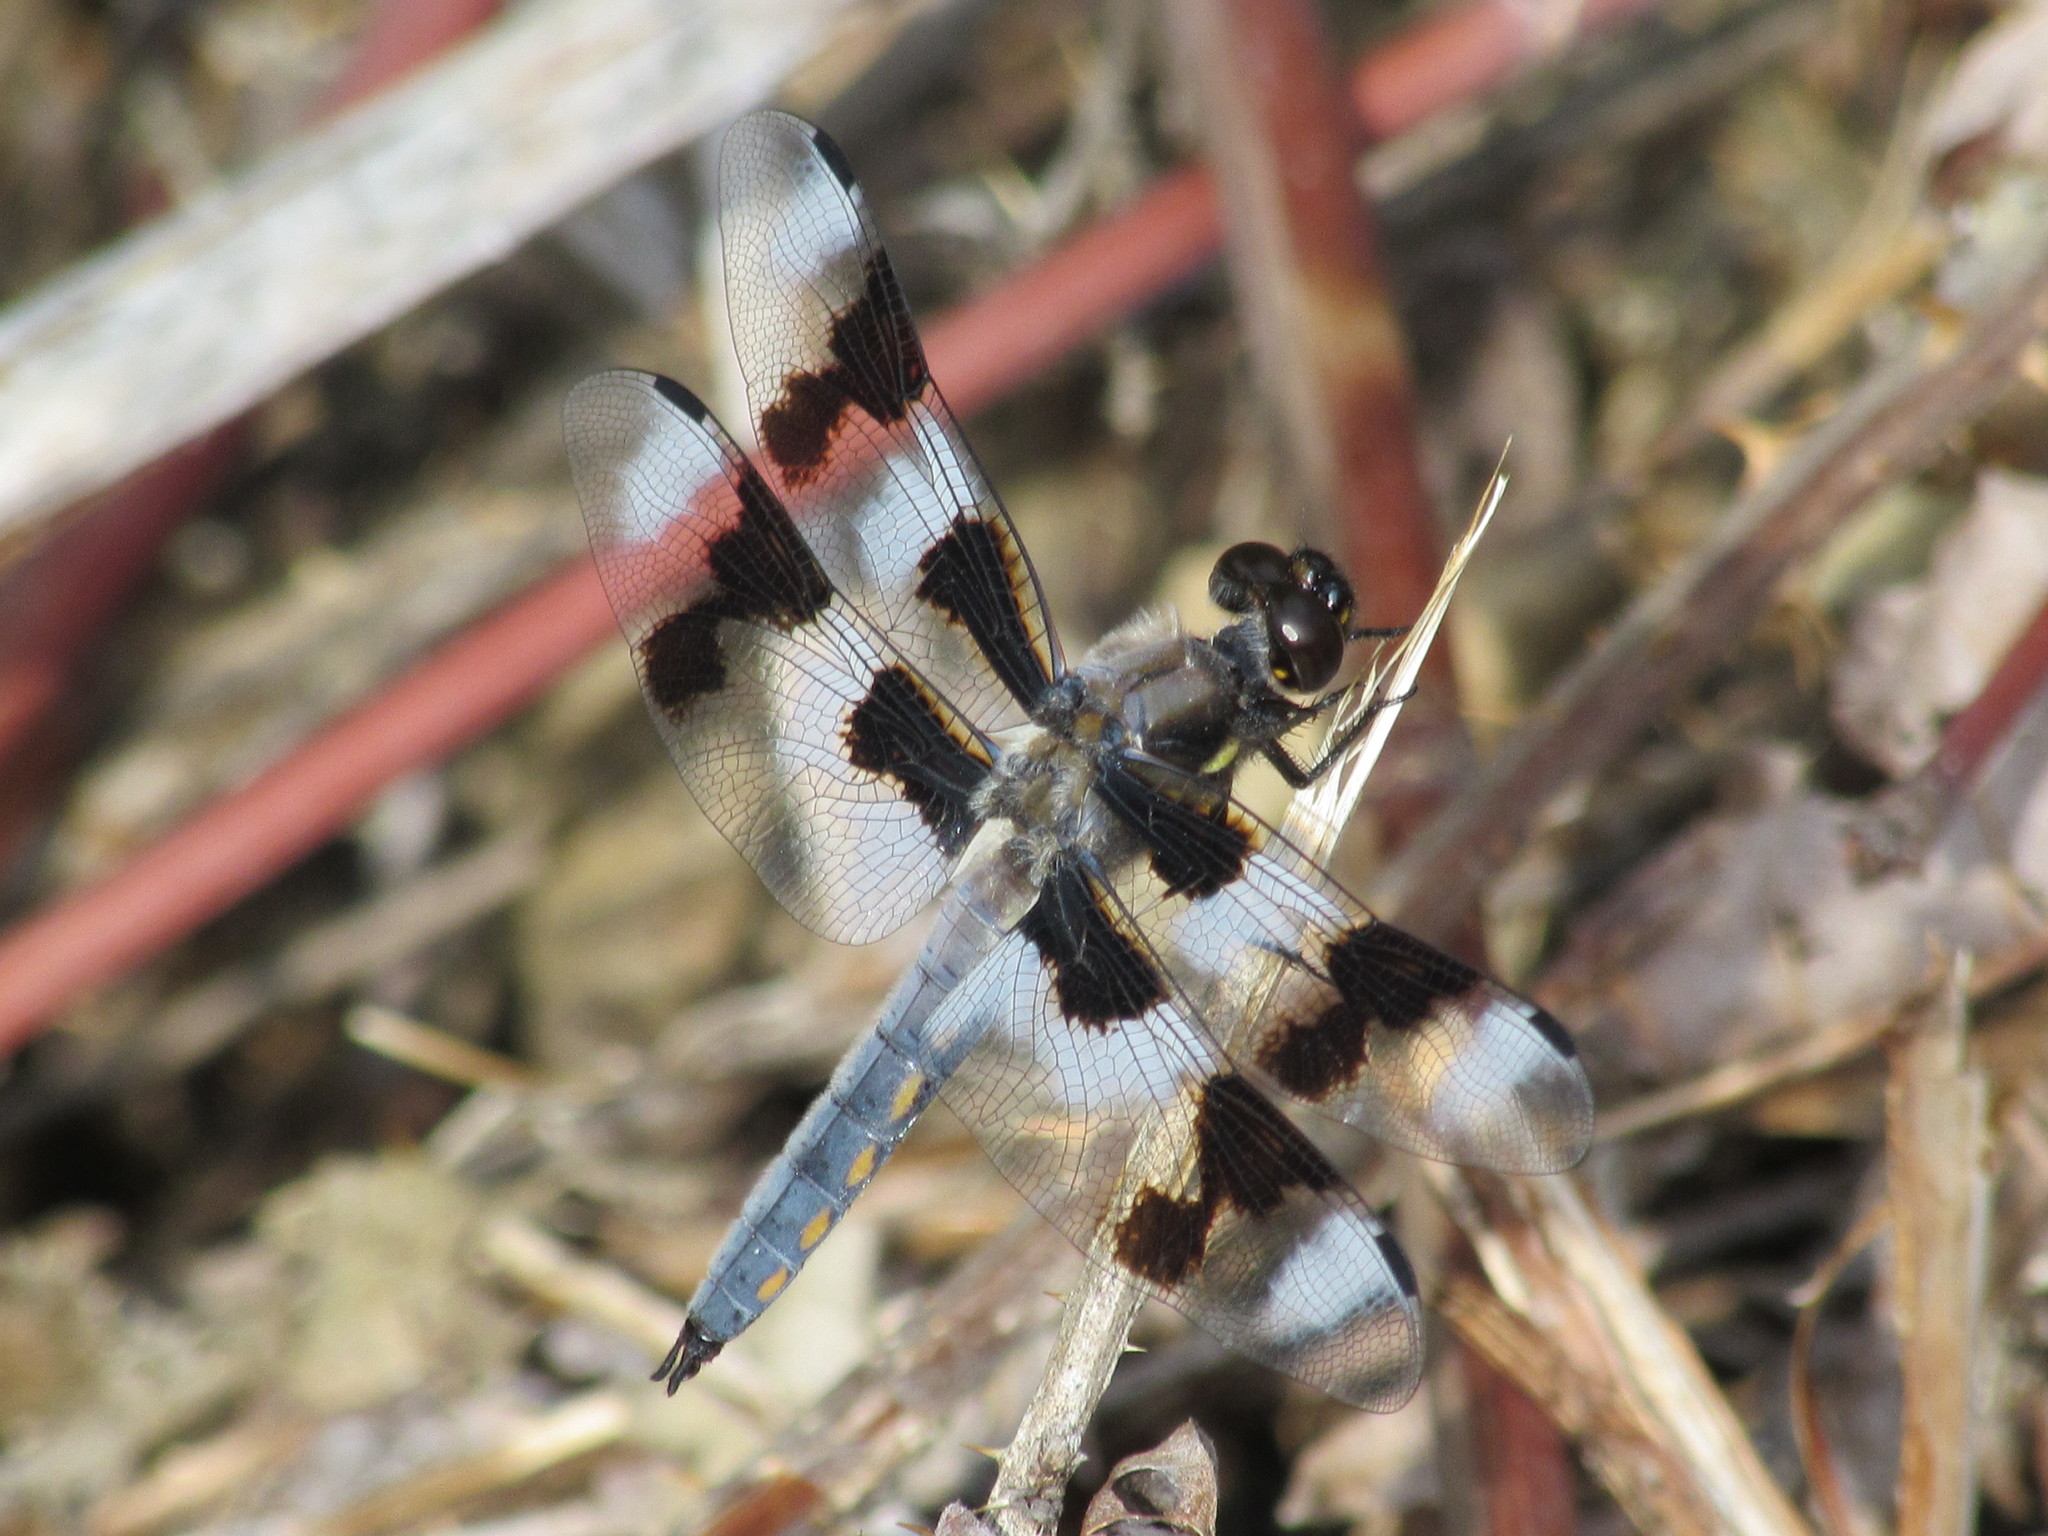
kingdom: Animalia
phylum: Arthropoda
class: Insecta
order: Odonata
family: Libellulidae
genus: Libellula
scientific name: Libellula forensis
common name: Eight-spotted skimmer
